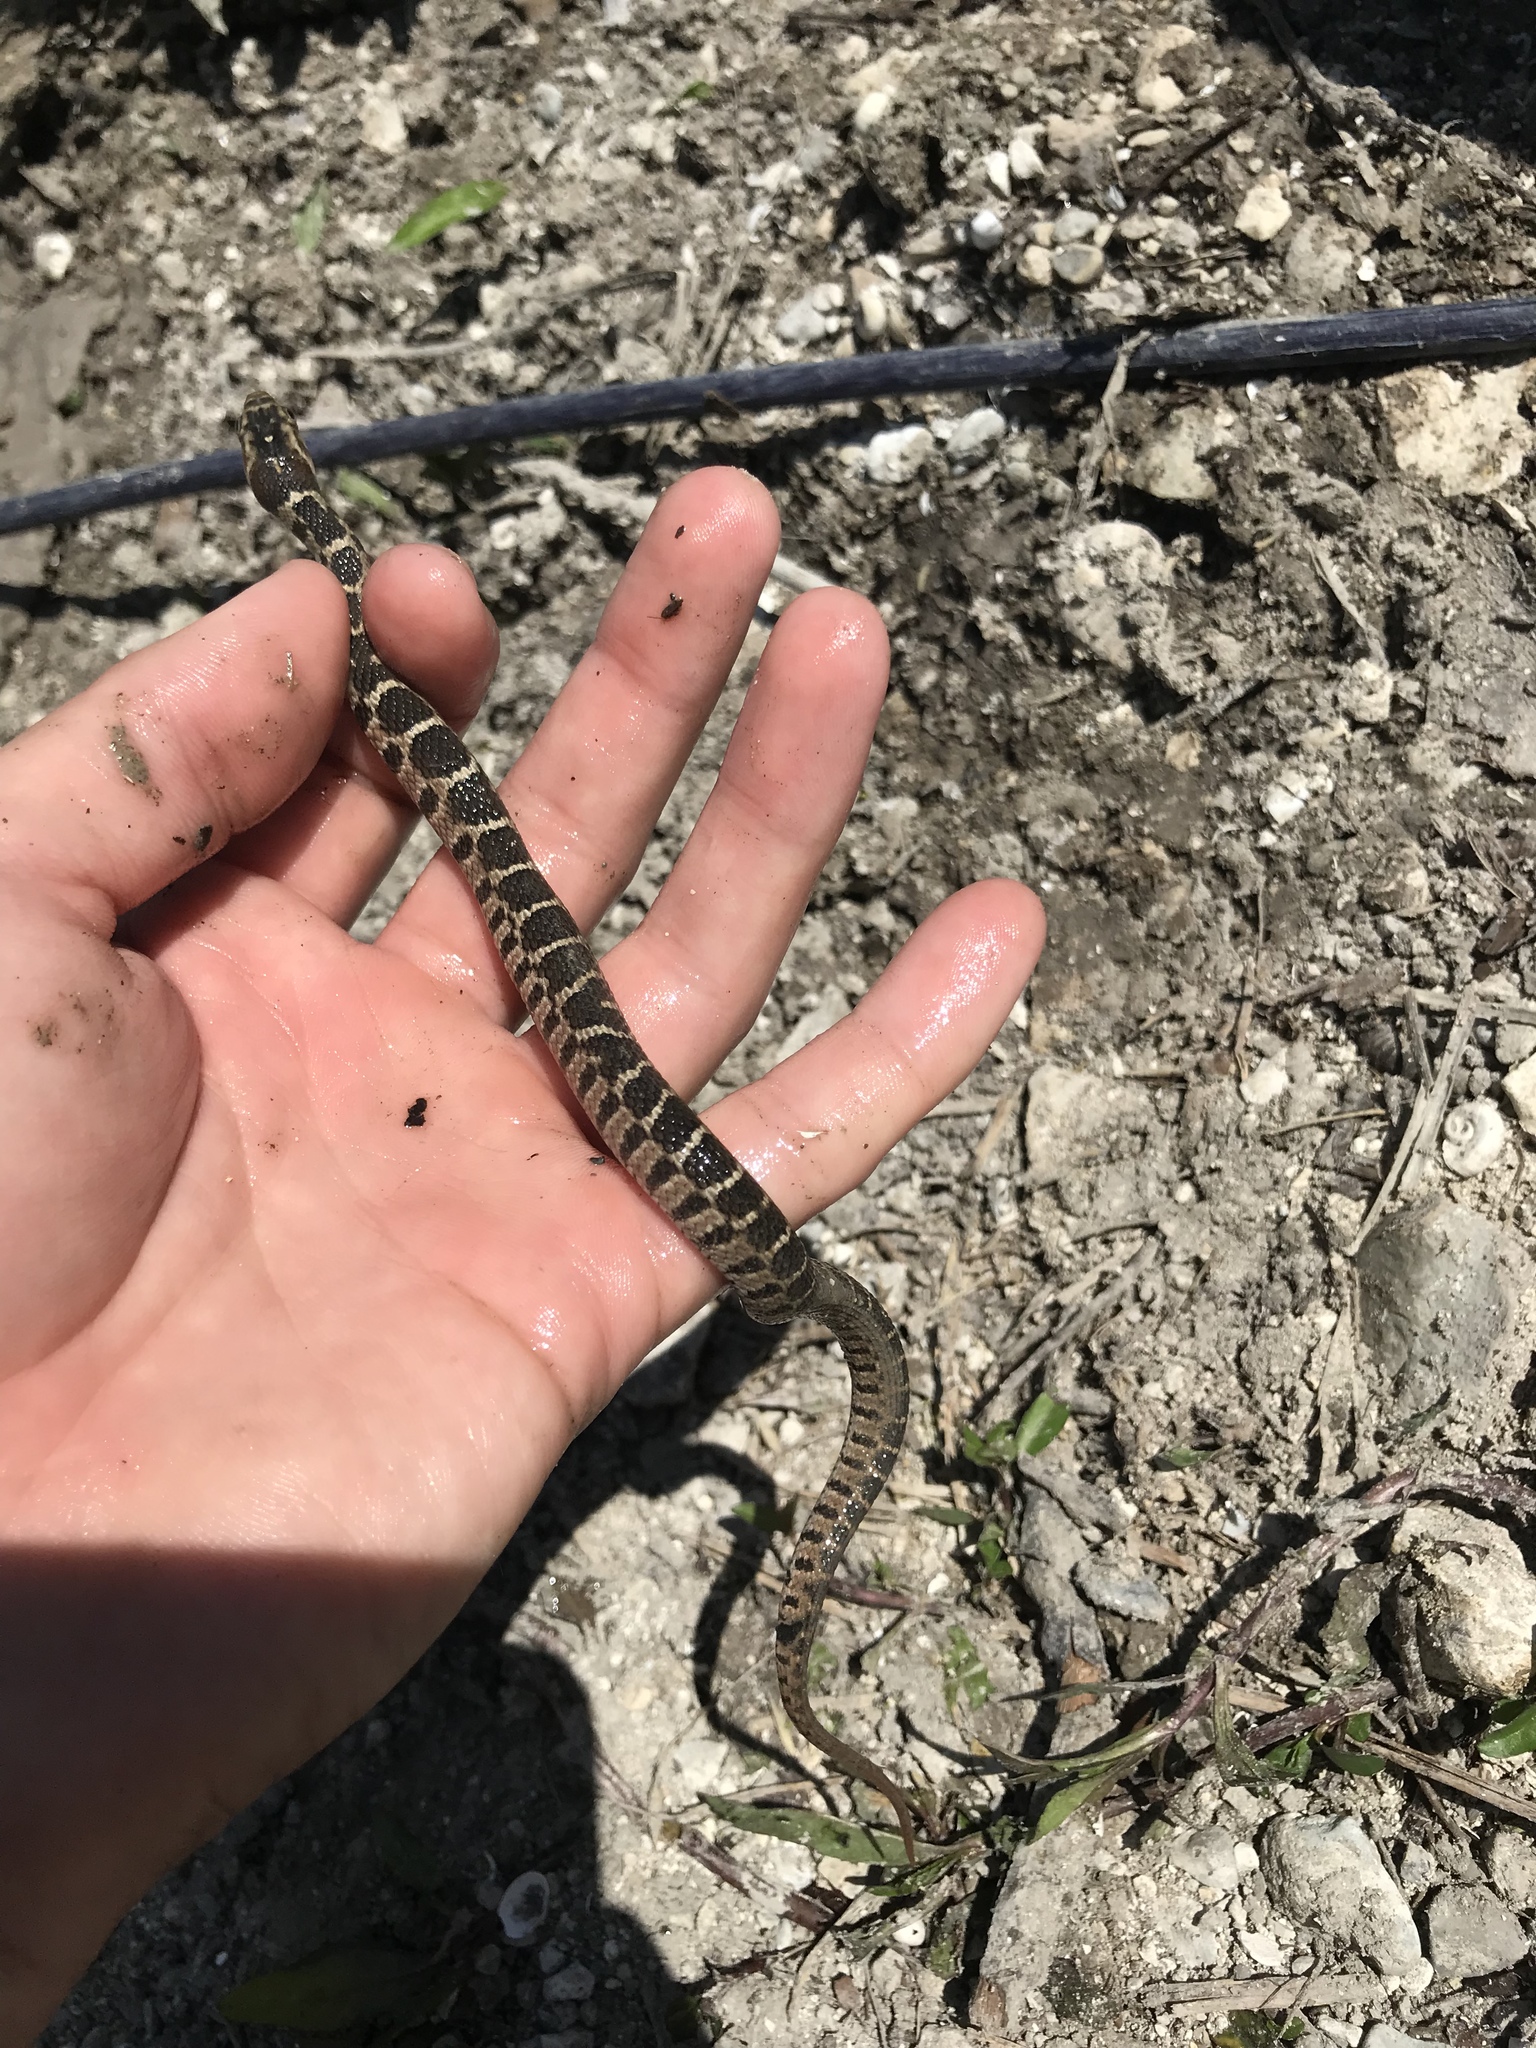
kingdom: Animalia
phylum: Chordata
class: Squamata
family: Colubridae
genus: Nerodia
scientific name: Nerodia erythrogaster
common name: Plainbelly water snake
